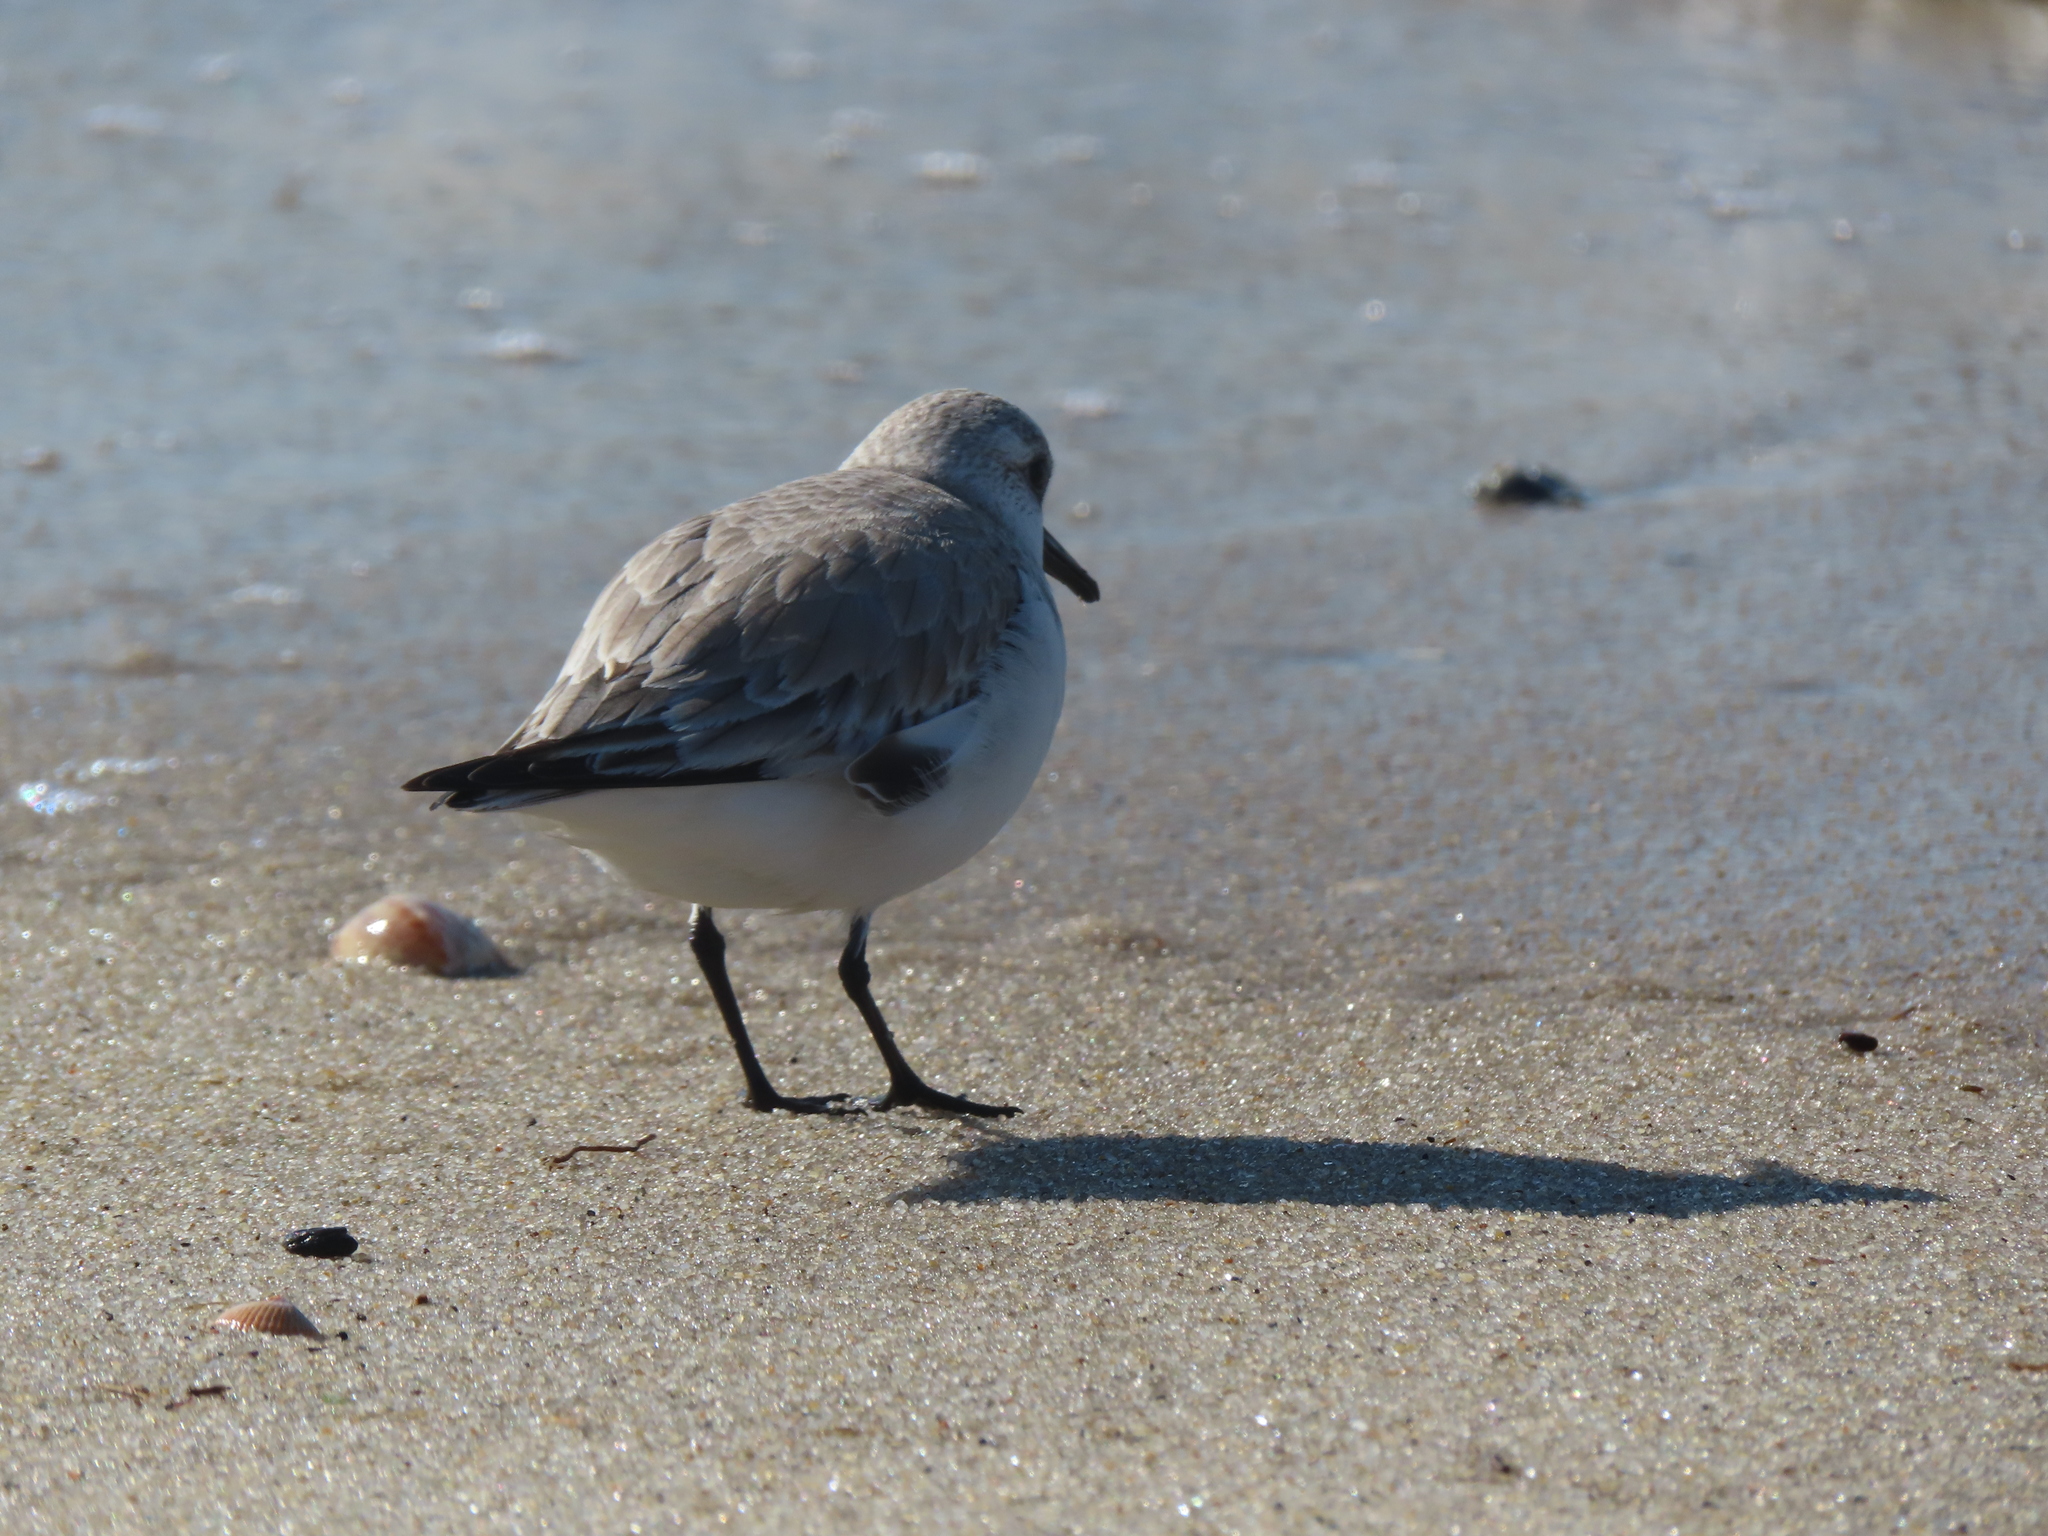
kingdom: Animalia
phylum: Chordata
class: Aves
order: Charadriiformes
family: Scolopacidae
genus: Calidris
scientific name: Calidris alba
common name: Sanderling
